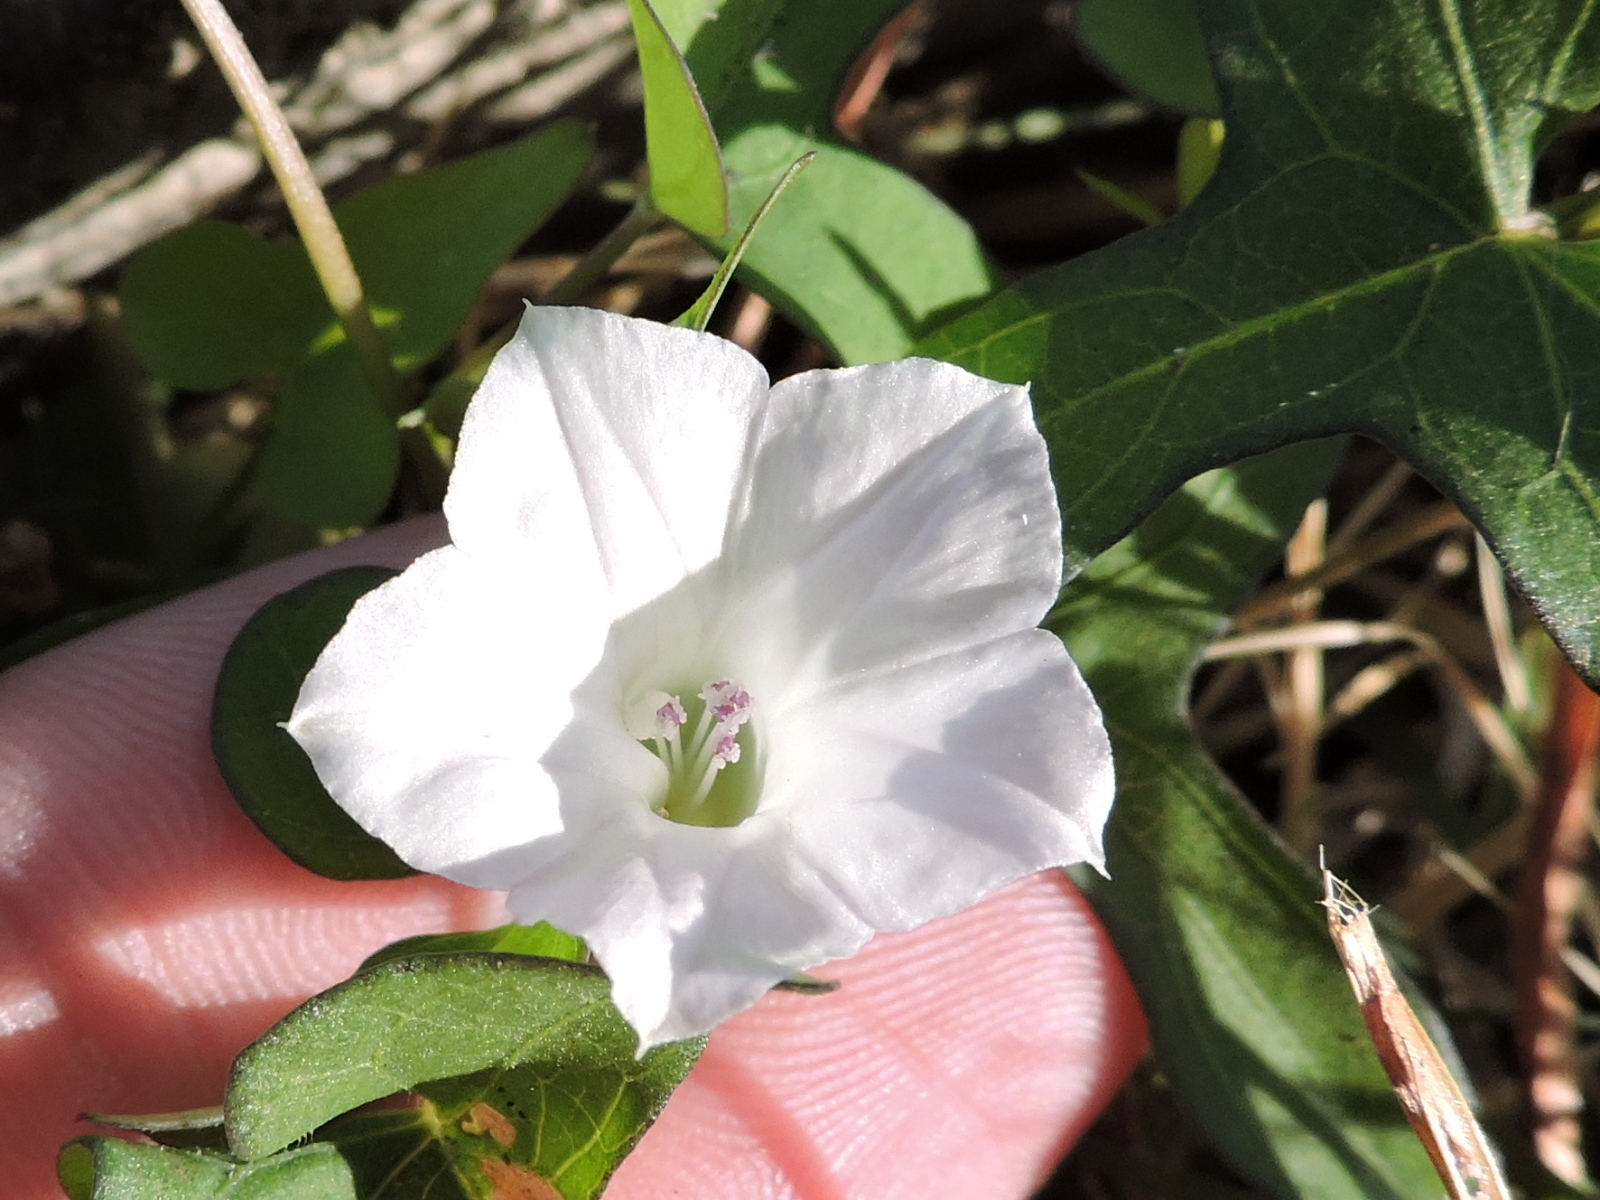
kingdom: Plantae
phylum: Tracheophyta
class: Magnoliopsida
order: Solanales
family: Convolvulaceae
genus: Ipomoea
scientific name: Ipomoea lacunosa
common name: White morning-glory
